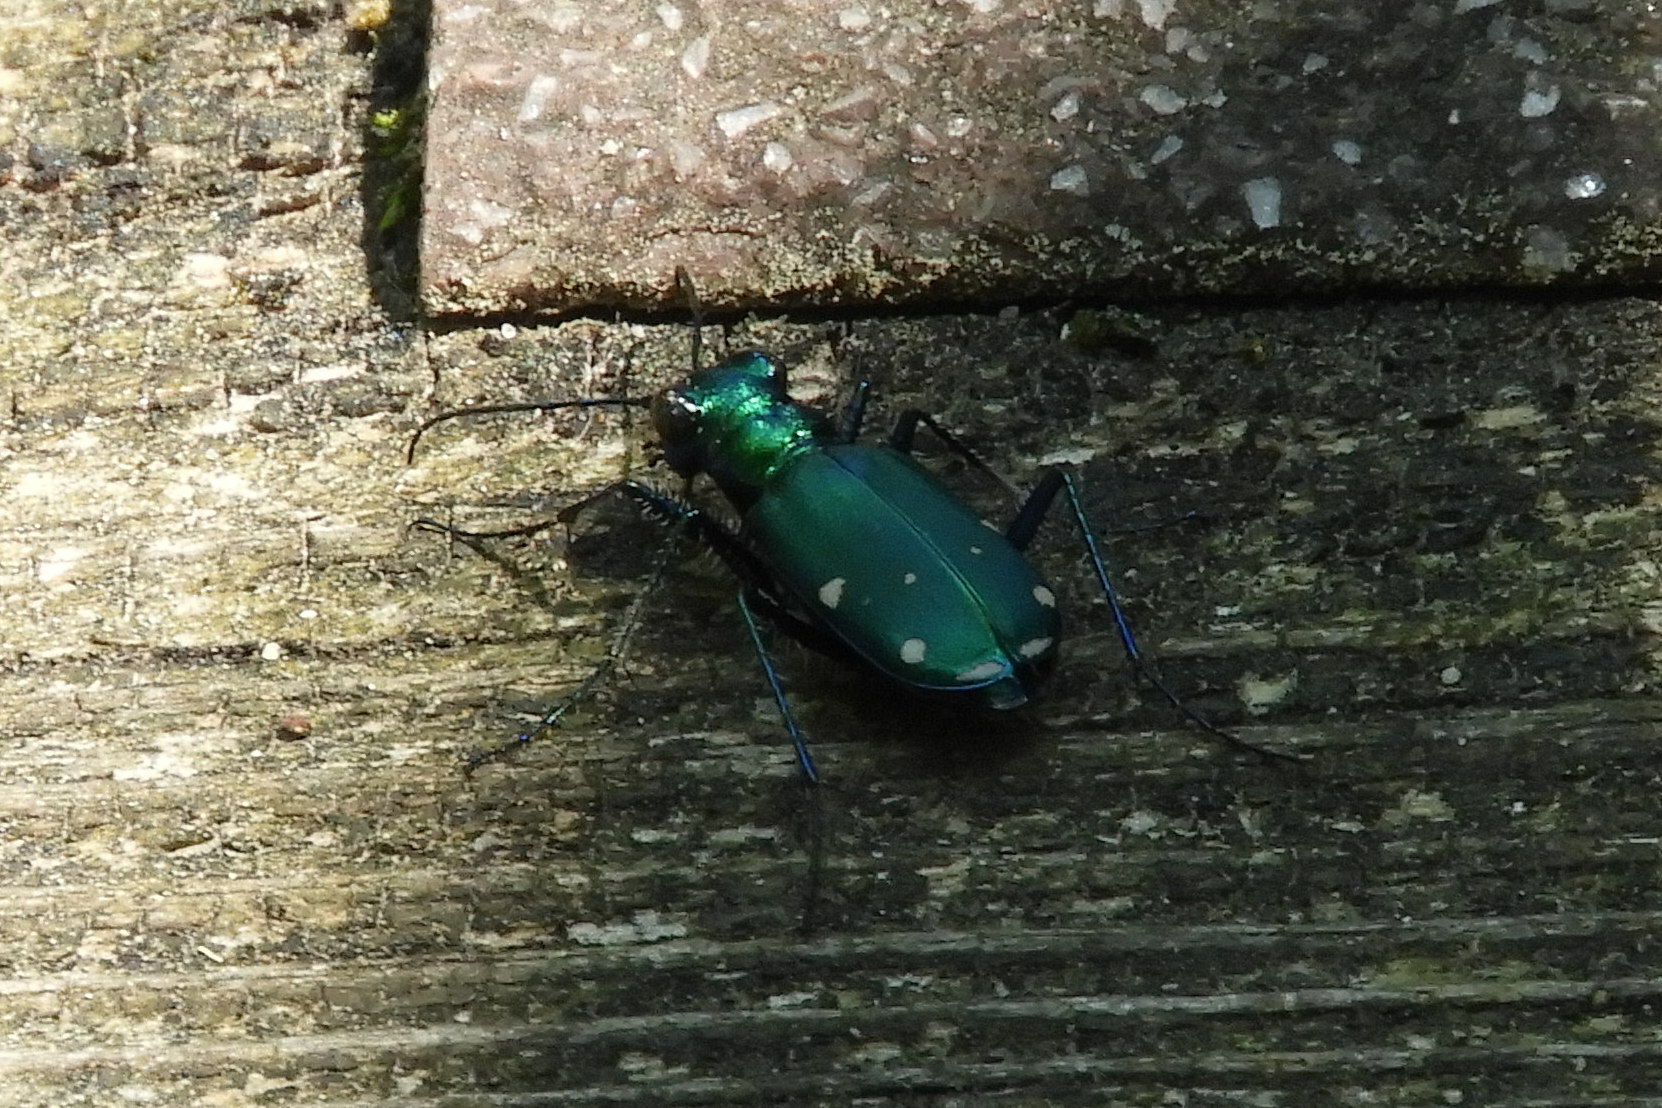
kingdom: Animalia
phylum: Arthropoda
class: Insecta
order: Coleoptera
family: Carabidae
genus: Cicindela
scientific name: Cicindela sexguttata
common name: Six-spotted tiger beetle
